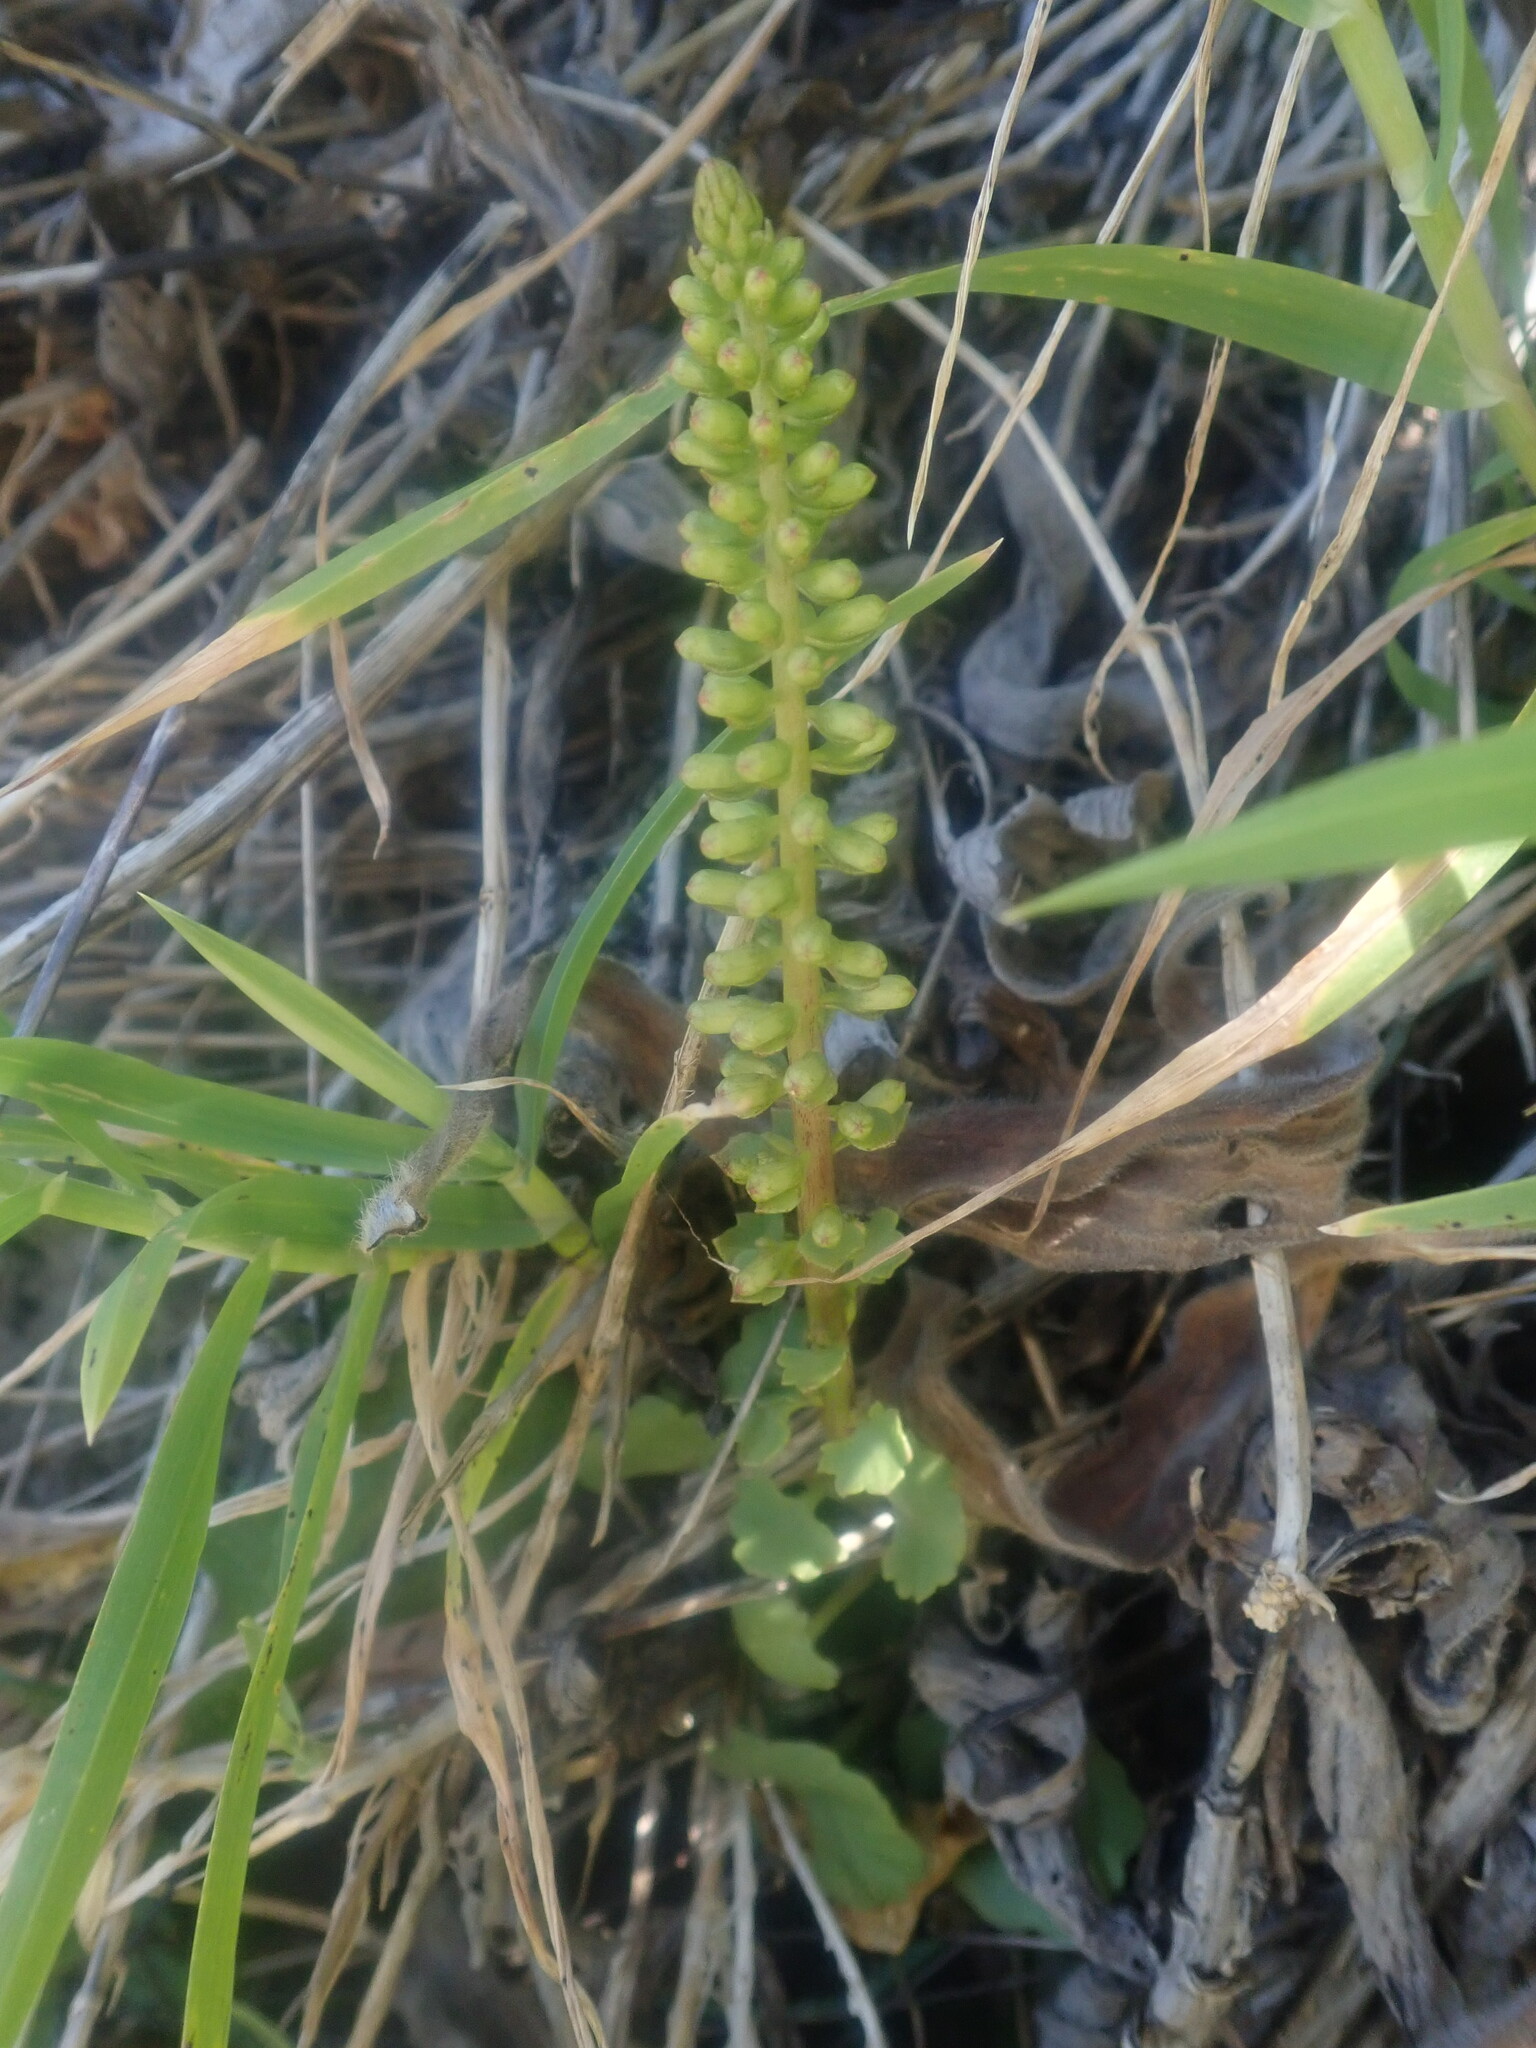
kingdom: Plantae
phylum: Tracheophyta
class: Magnoliopsida
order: Saxifragales
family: Crassulaceae
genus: Umbilicus
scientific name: Umbilicus rupestris
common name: Navelwort
